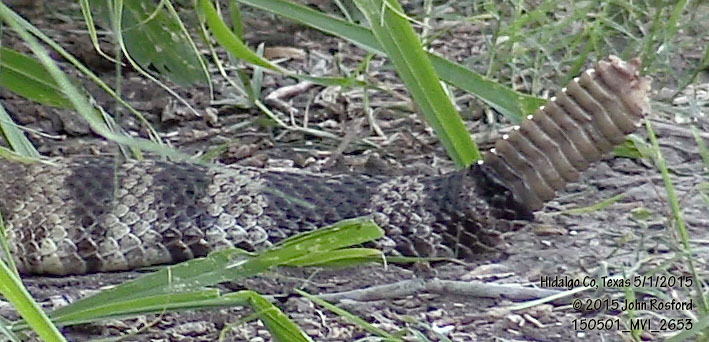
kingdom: Animalia
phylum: Chordata
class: Squamata
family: Viperidae
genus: Crotalus
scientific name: Crotalus atrox
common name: Western diamond-backed rattlesnake
